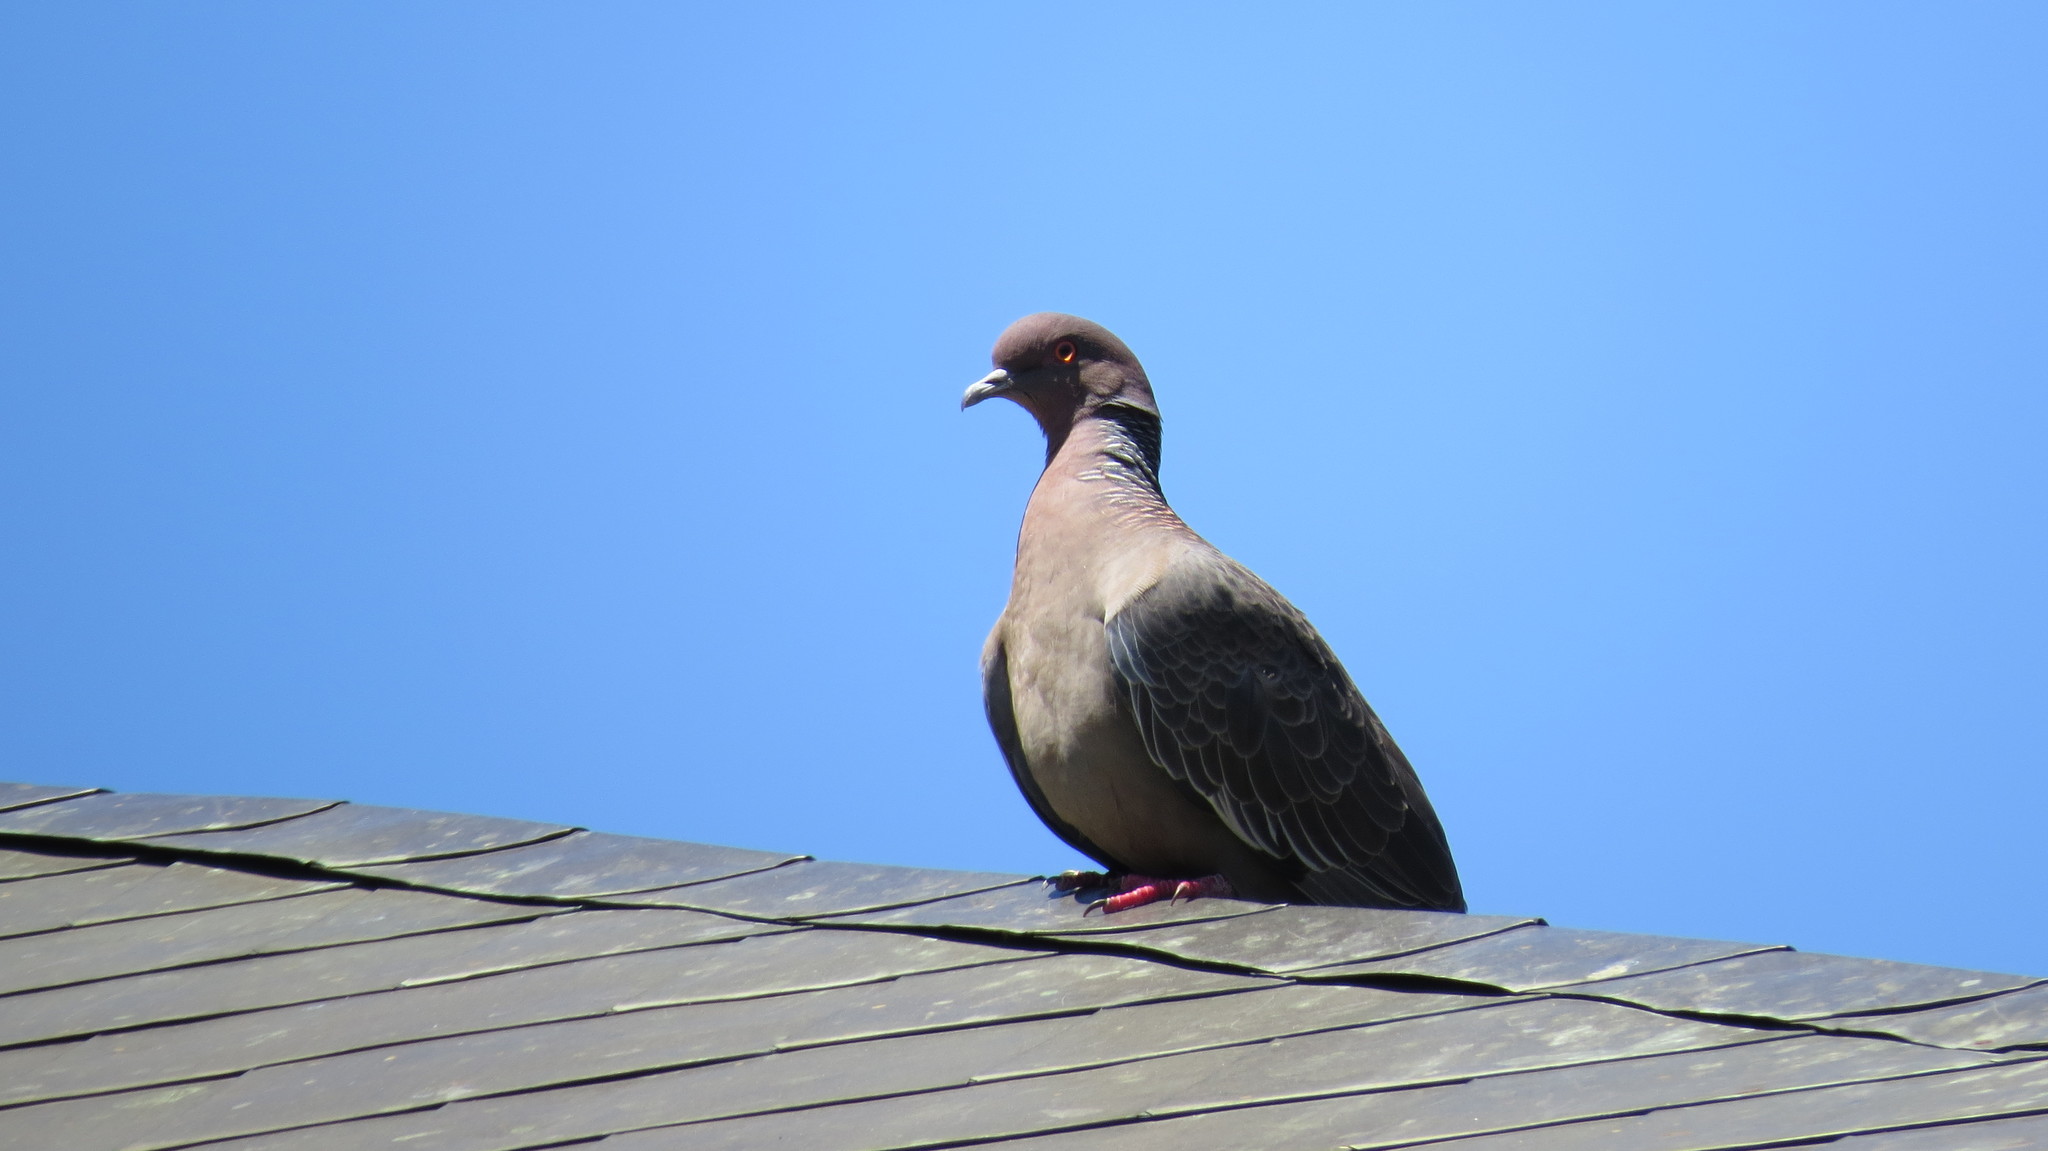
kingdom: Animalia
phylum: Chordata
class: Aves
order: Columbiformes
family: Columbidae
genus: Patagioenas
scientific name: Patagioenas picazuro
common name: Picazuro pigeon
